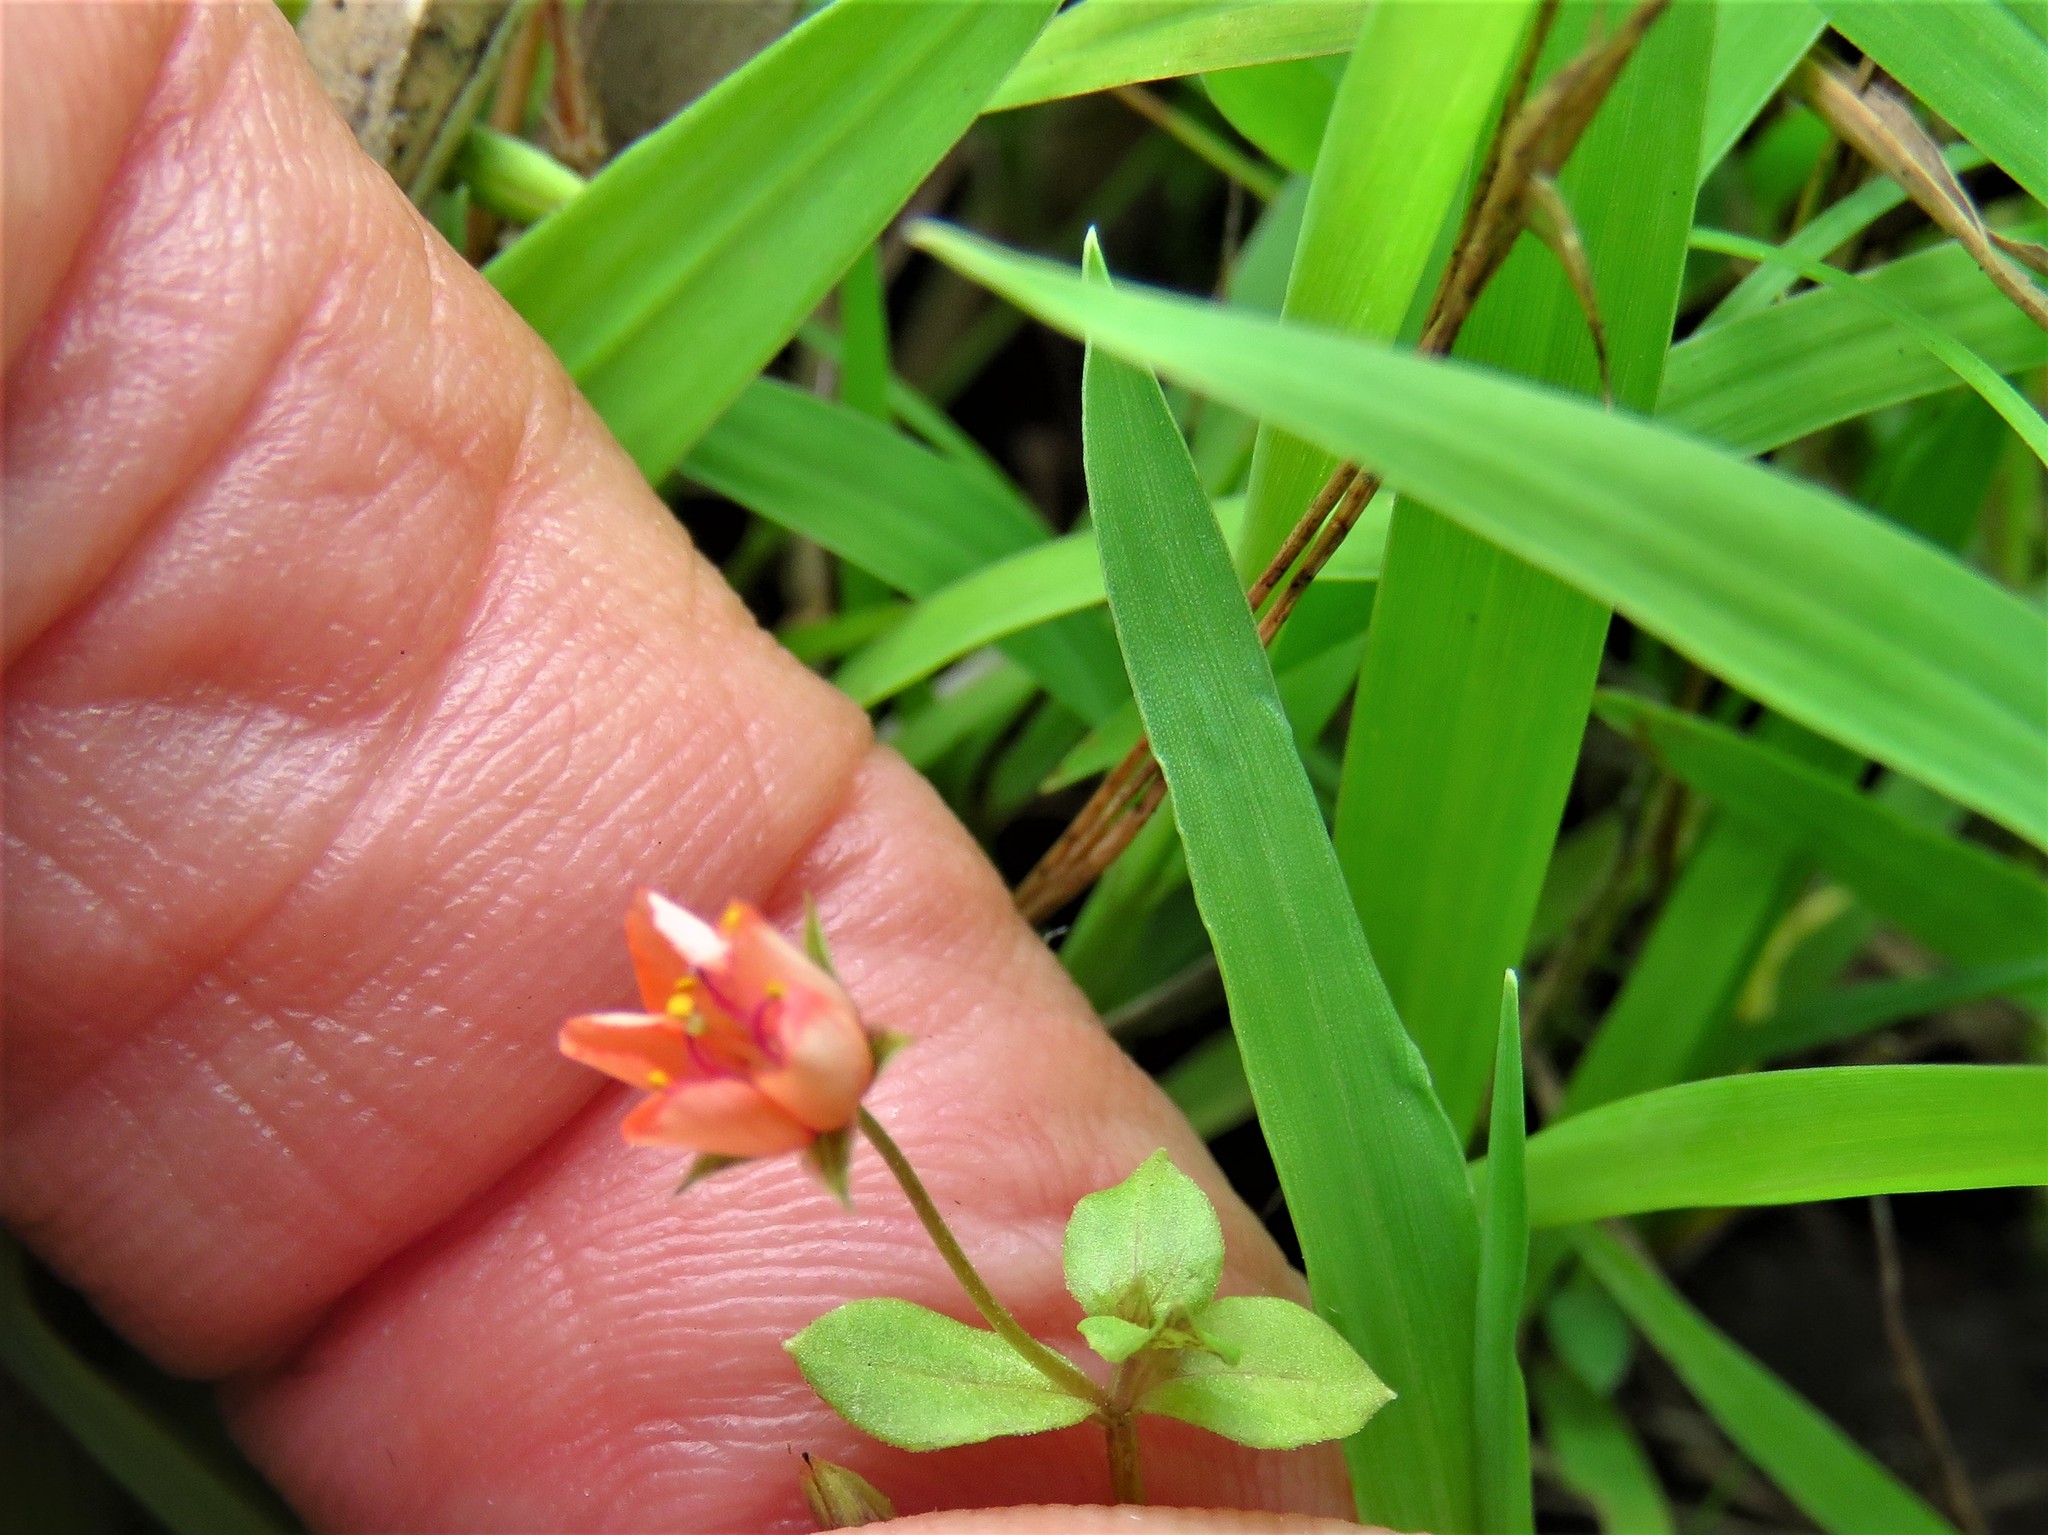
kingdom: Plantae
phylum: Tracheophyta
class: Magnoliopsida
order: Ericales
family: Primulaceae
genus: Lysimachia
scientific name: Lysimachia arvensis
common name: Scarlet pimpernel
